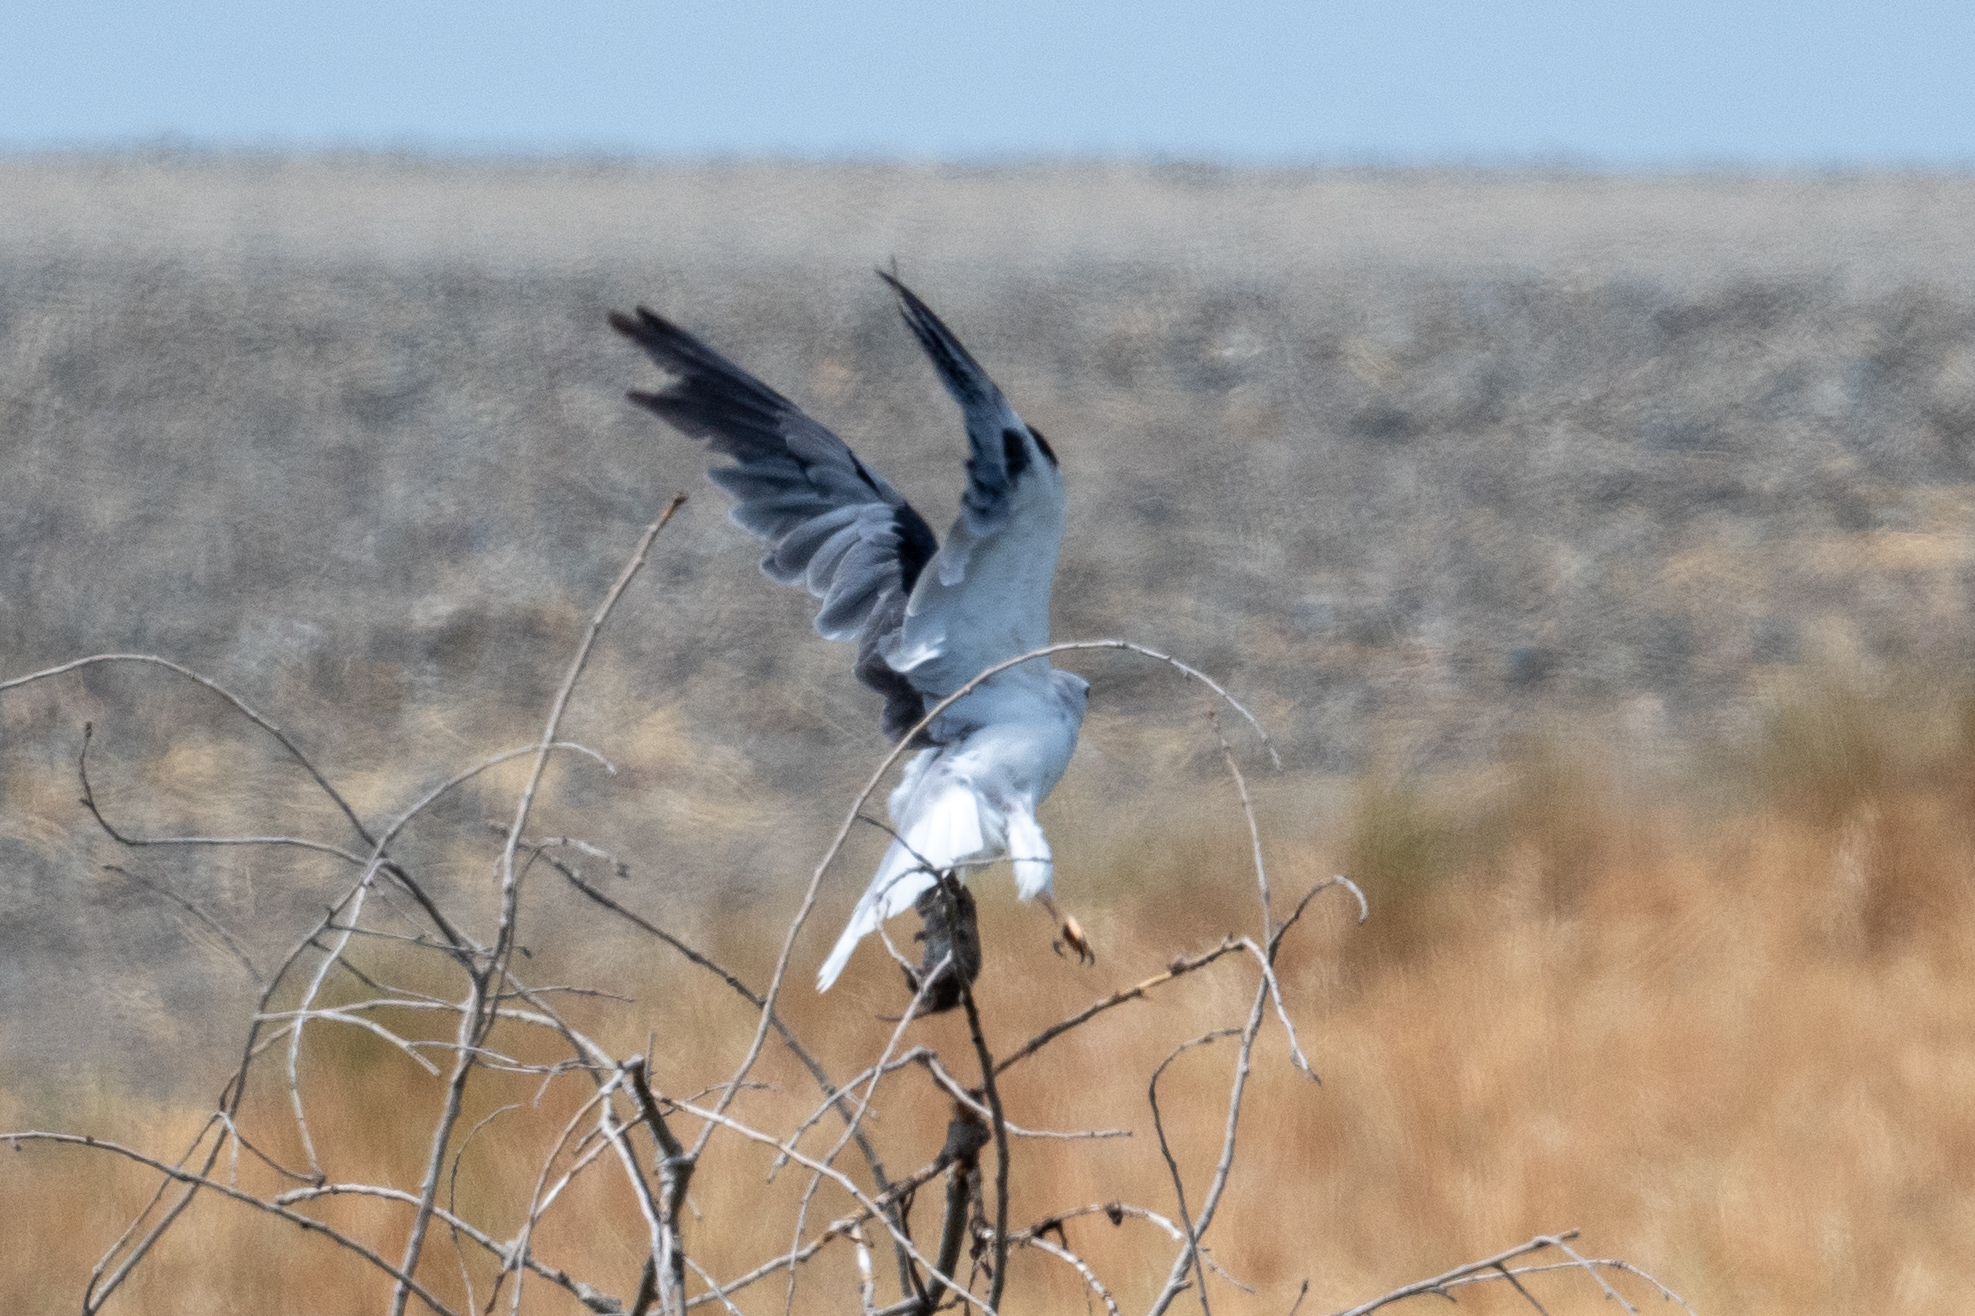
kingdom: Animalia
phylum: Chordata
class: Aves
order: Accipitriformes
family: Accipitridae
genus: Elanus
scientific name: Elanus leucurus
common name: White-tailed kite
